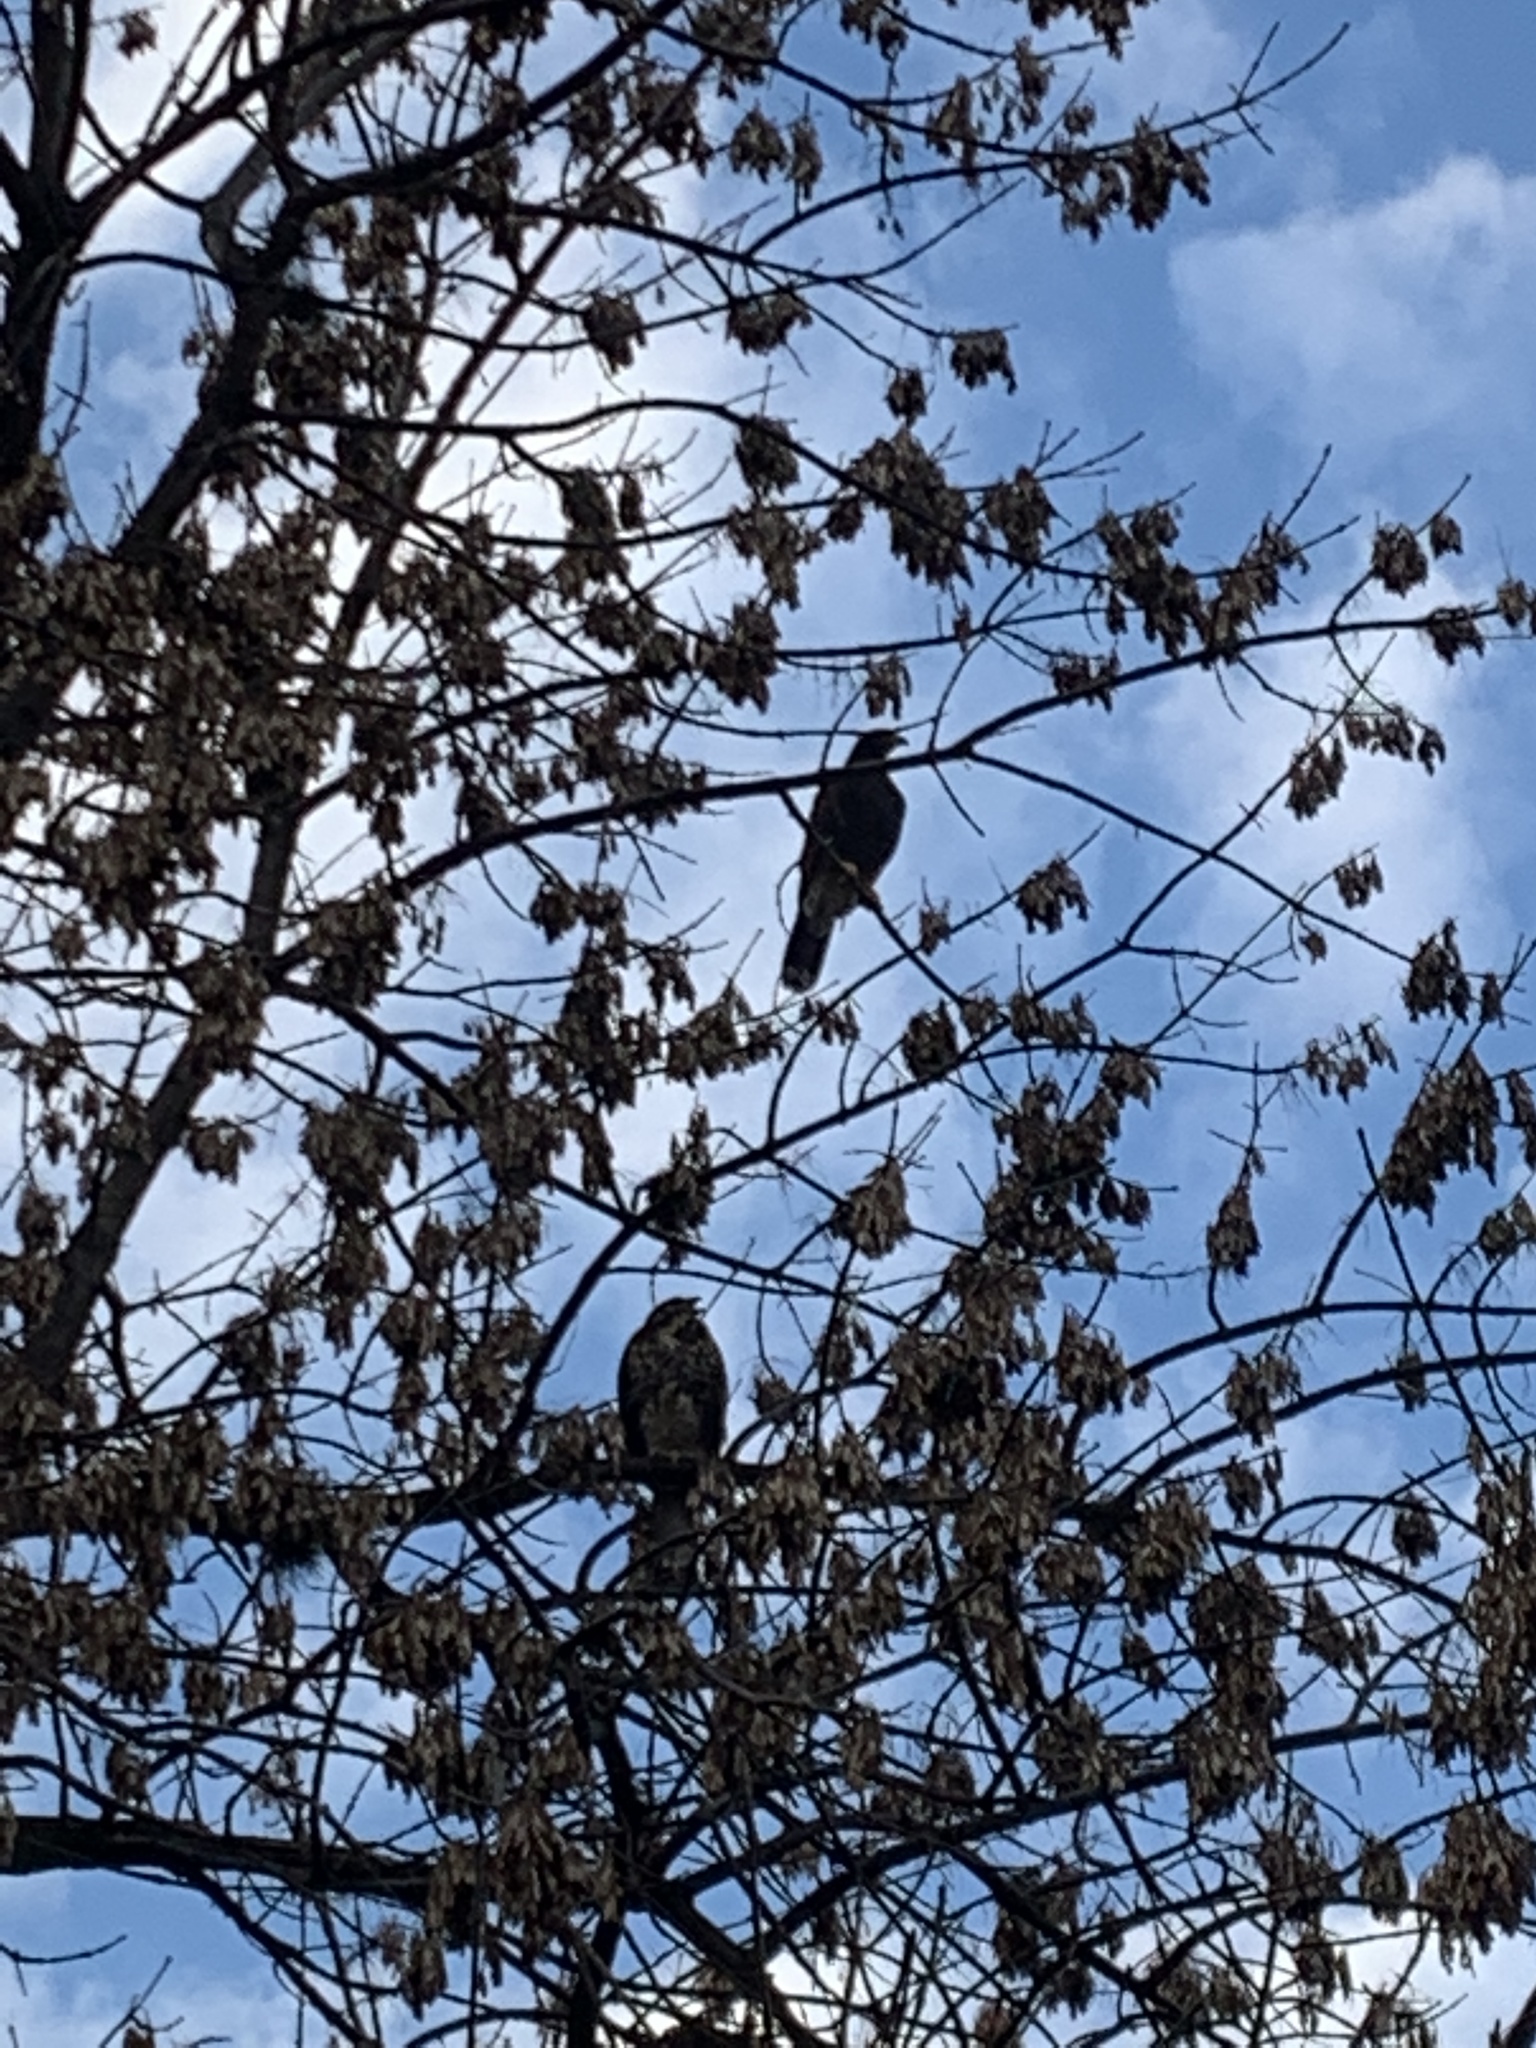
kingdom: Animalia
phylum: Chordata
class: Aves
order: Accipitriformes
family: Accipitridae
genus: Parabuteo
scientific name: Parabuteo unicinctus
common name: Harris's hawk
